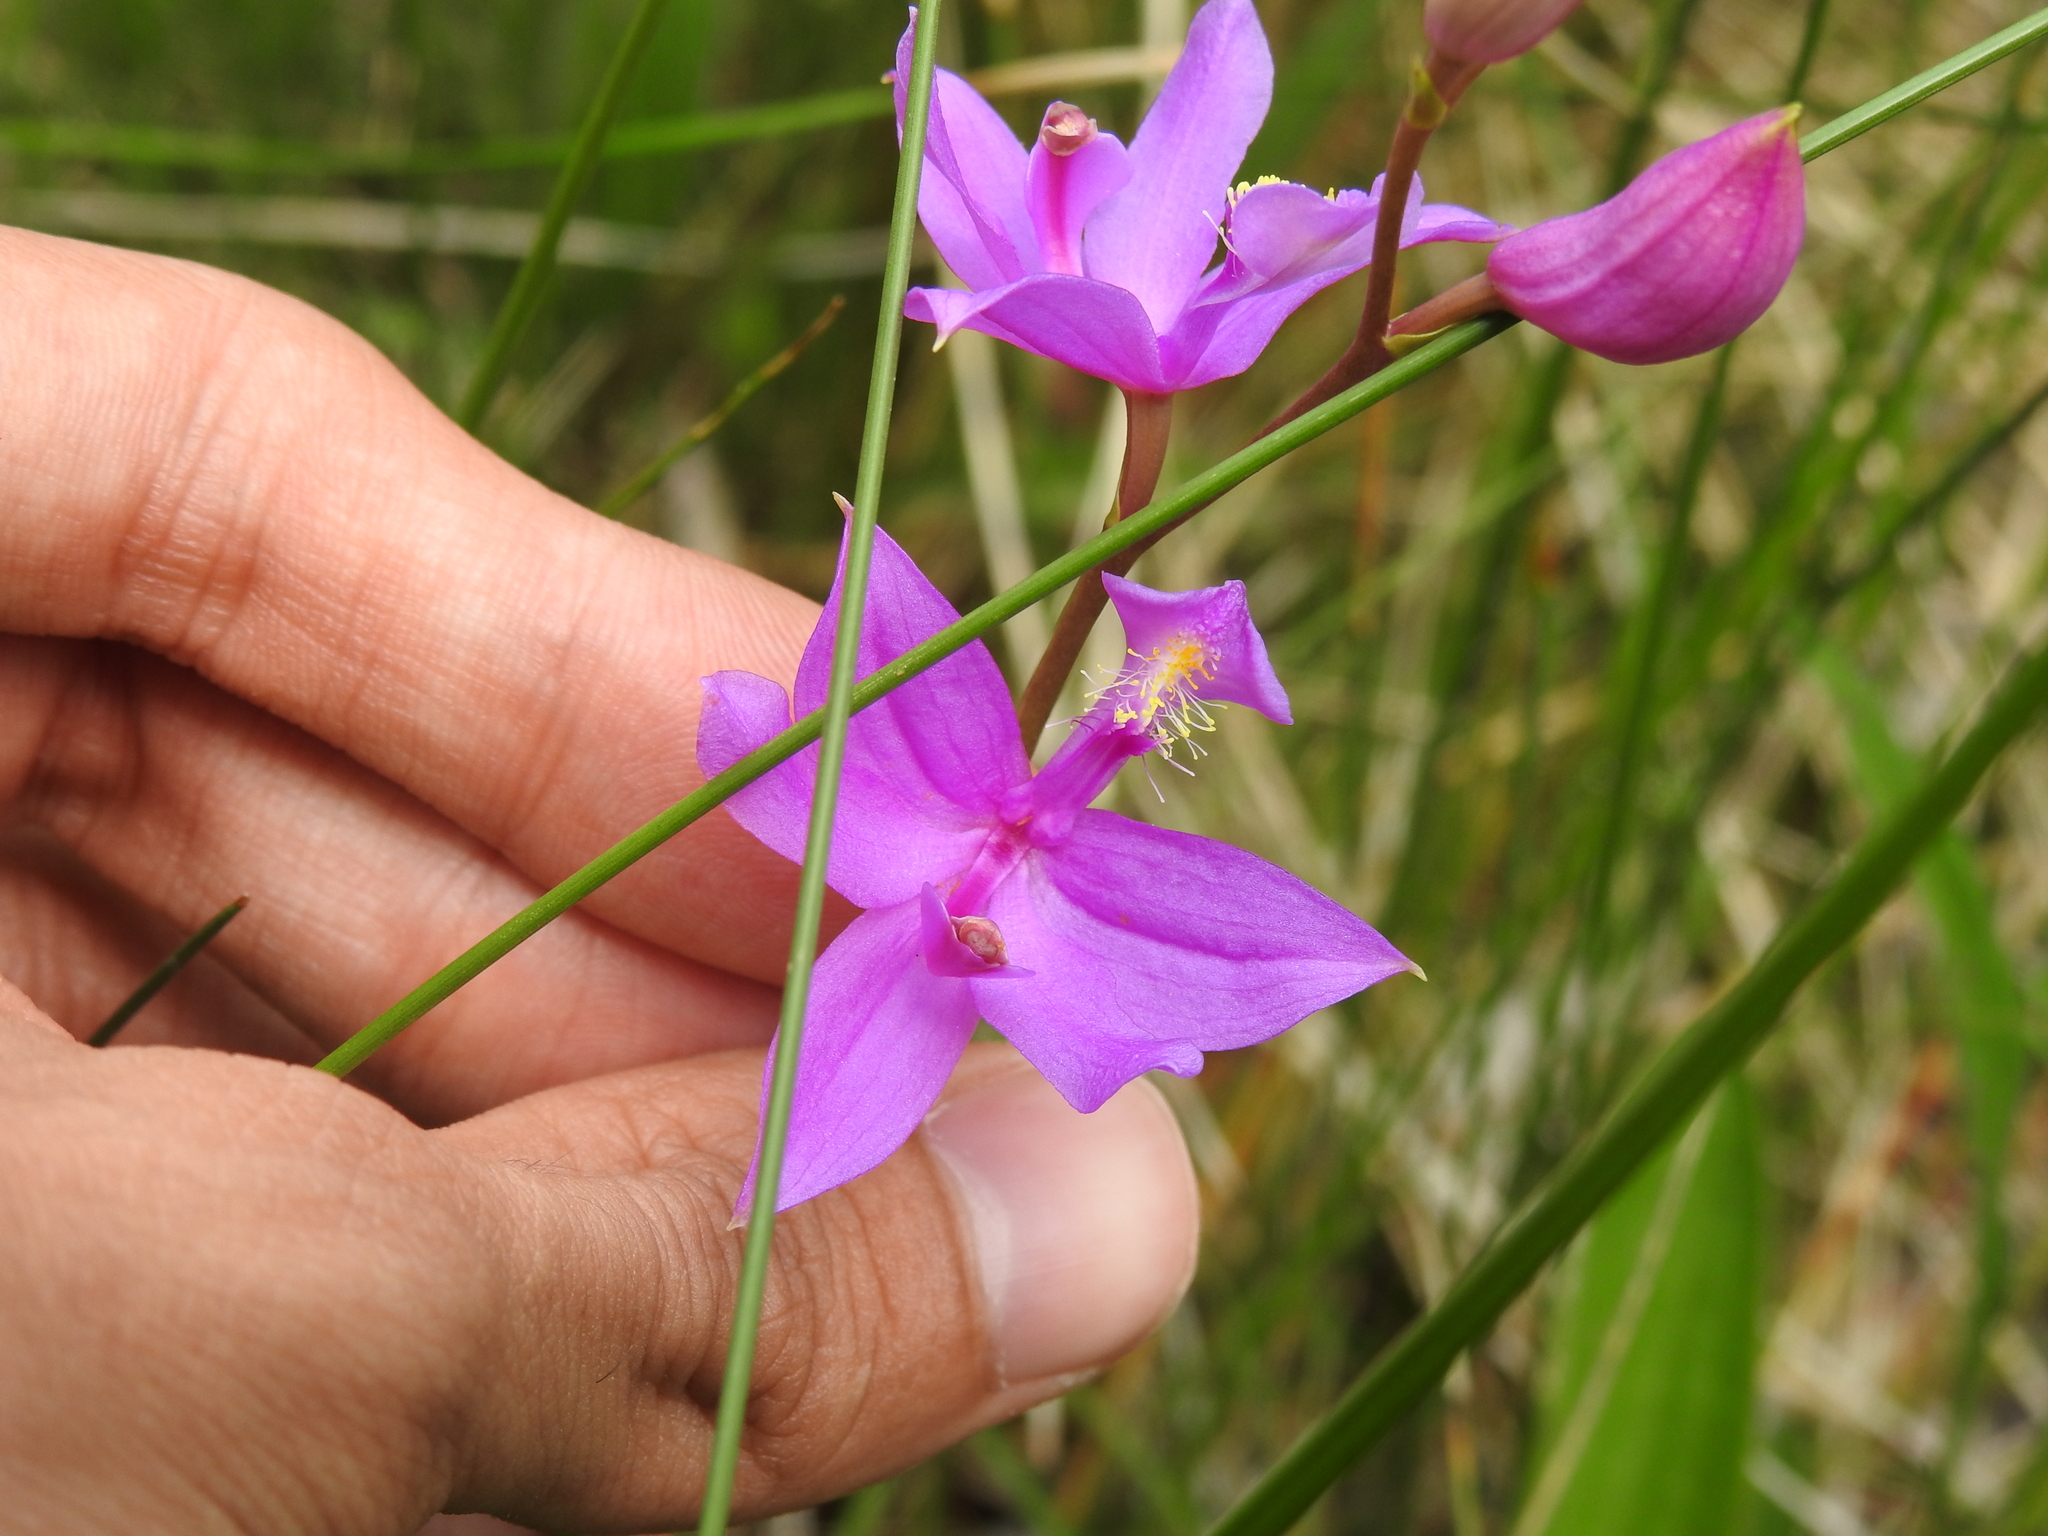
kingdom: Plantae
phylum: Tracheophyta
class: Liliopsida
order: Asparagales
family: Orchidaceae
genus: Calopogon
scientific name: Calopogon tuberosus
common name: Grass-pink
